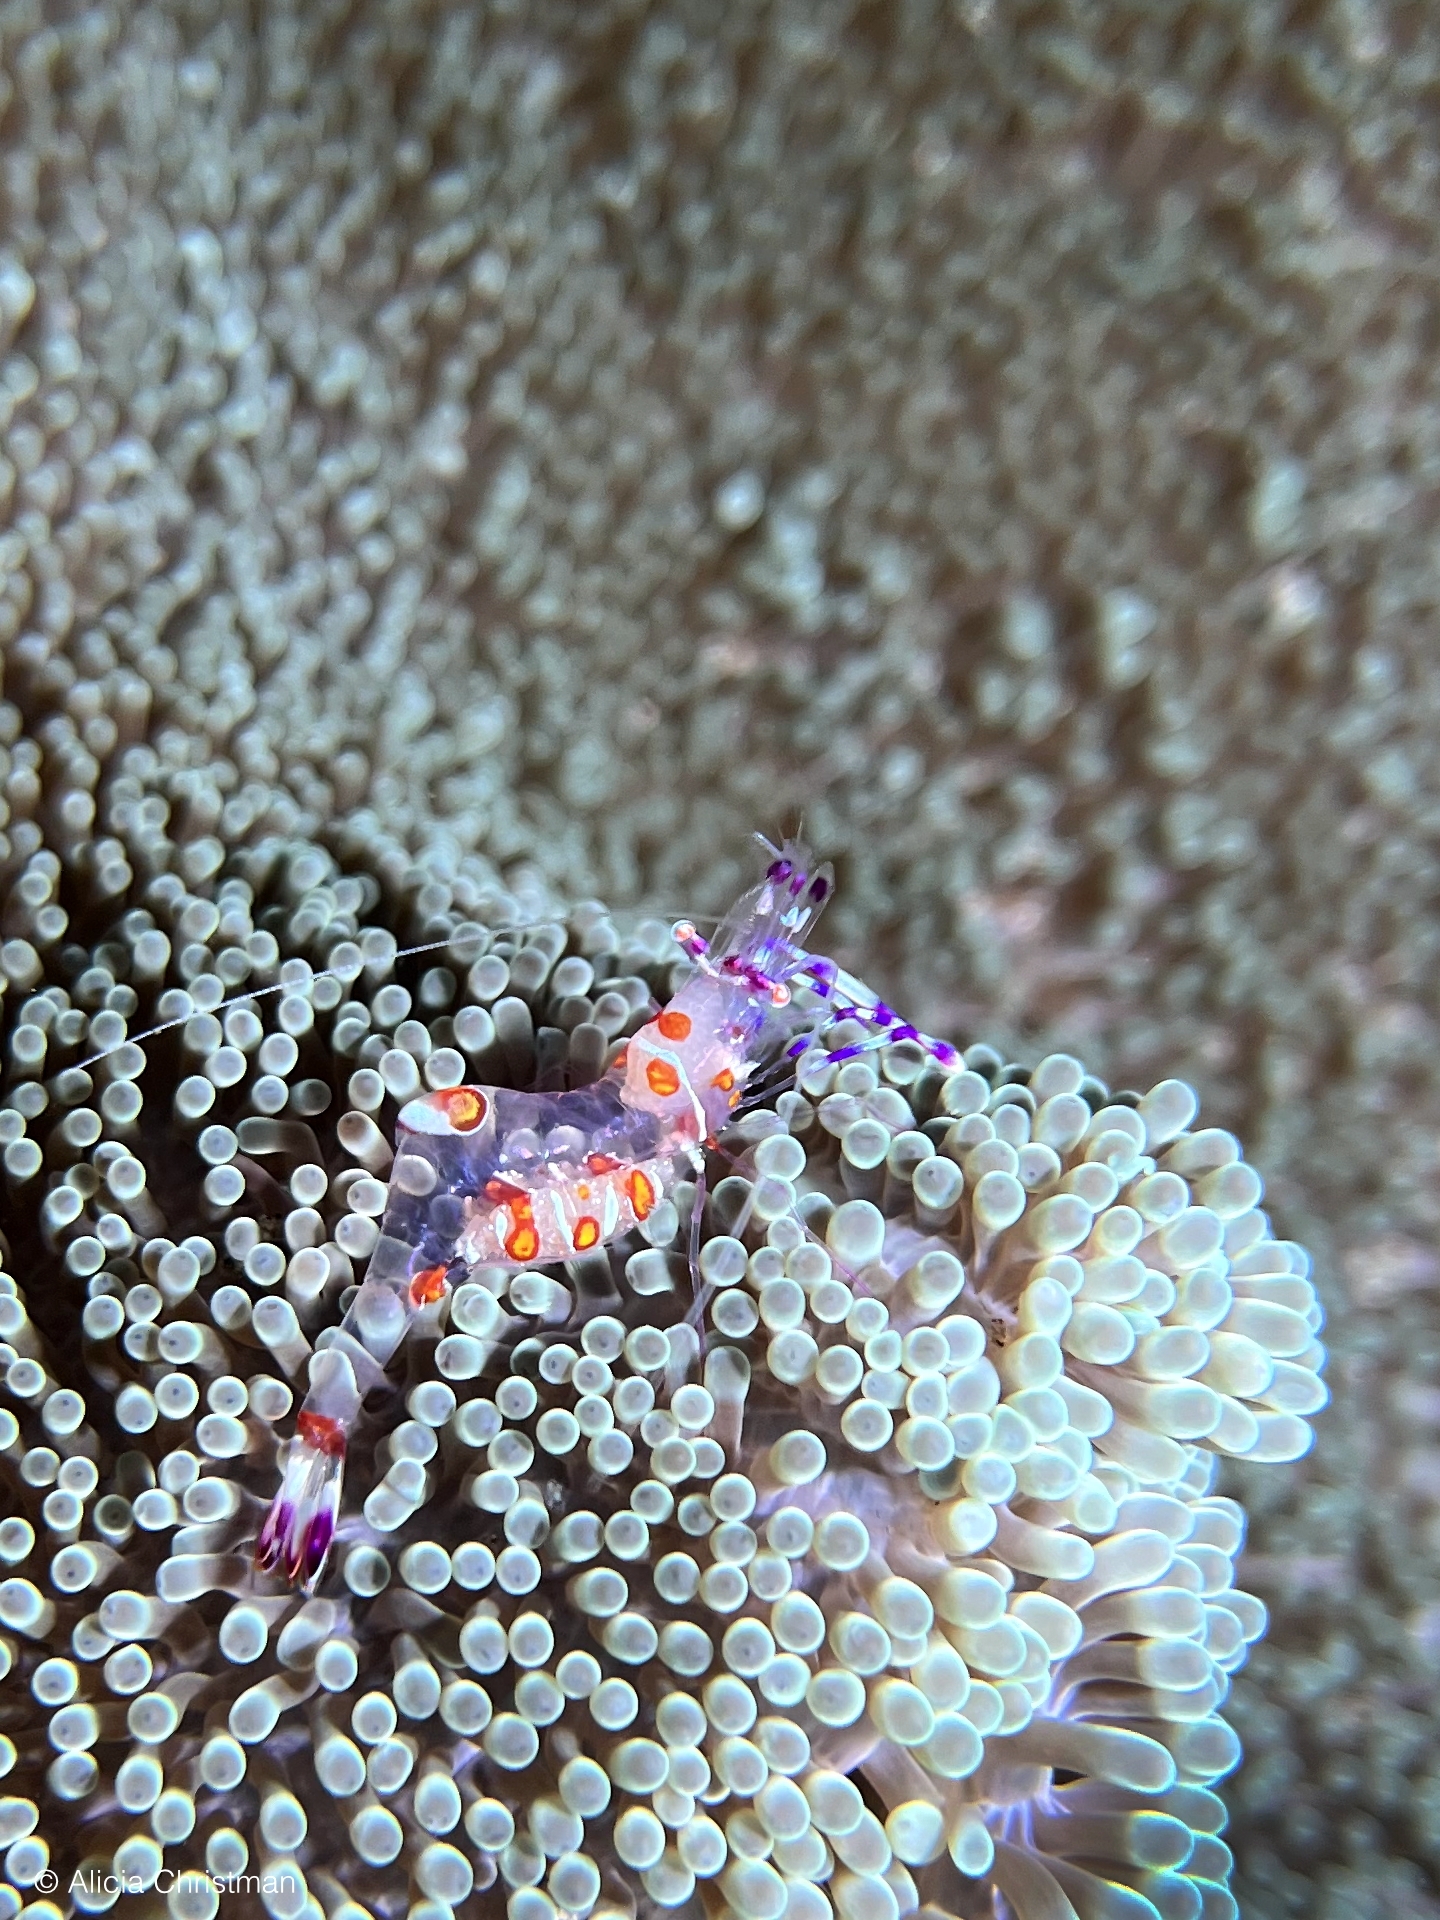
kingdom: Animalia
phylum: Arthropoda
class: Malacostraca
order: Decapoda
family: Palaemonidae
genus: Ancylomenes
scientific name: Ancylomenes luteomaculatus
